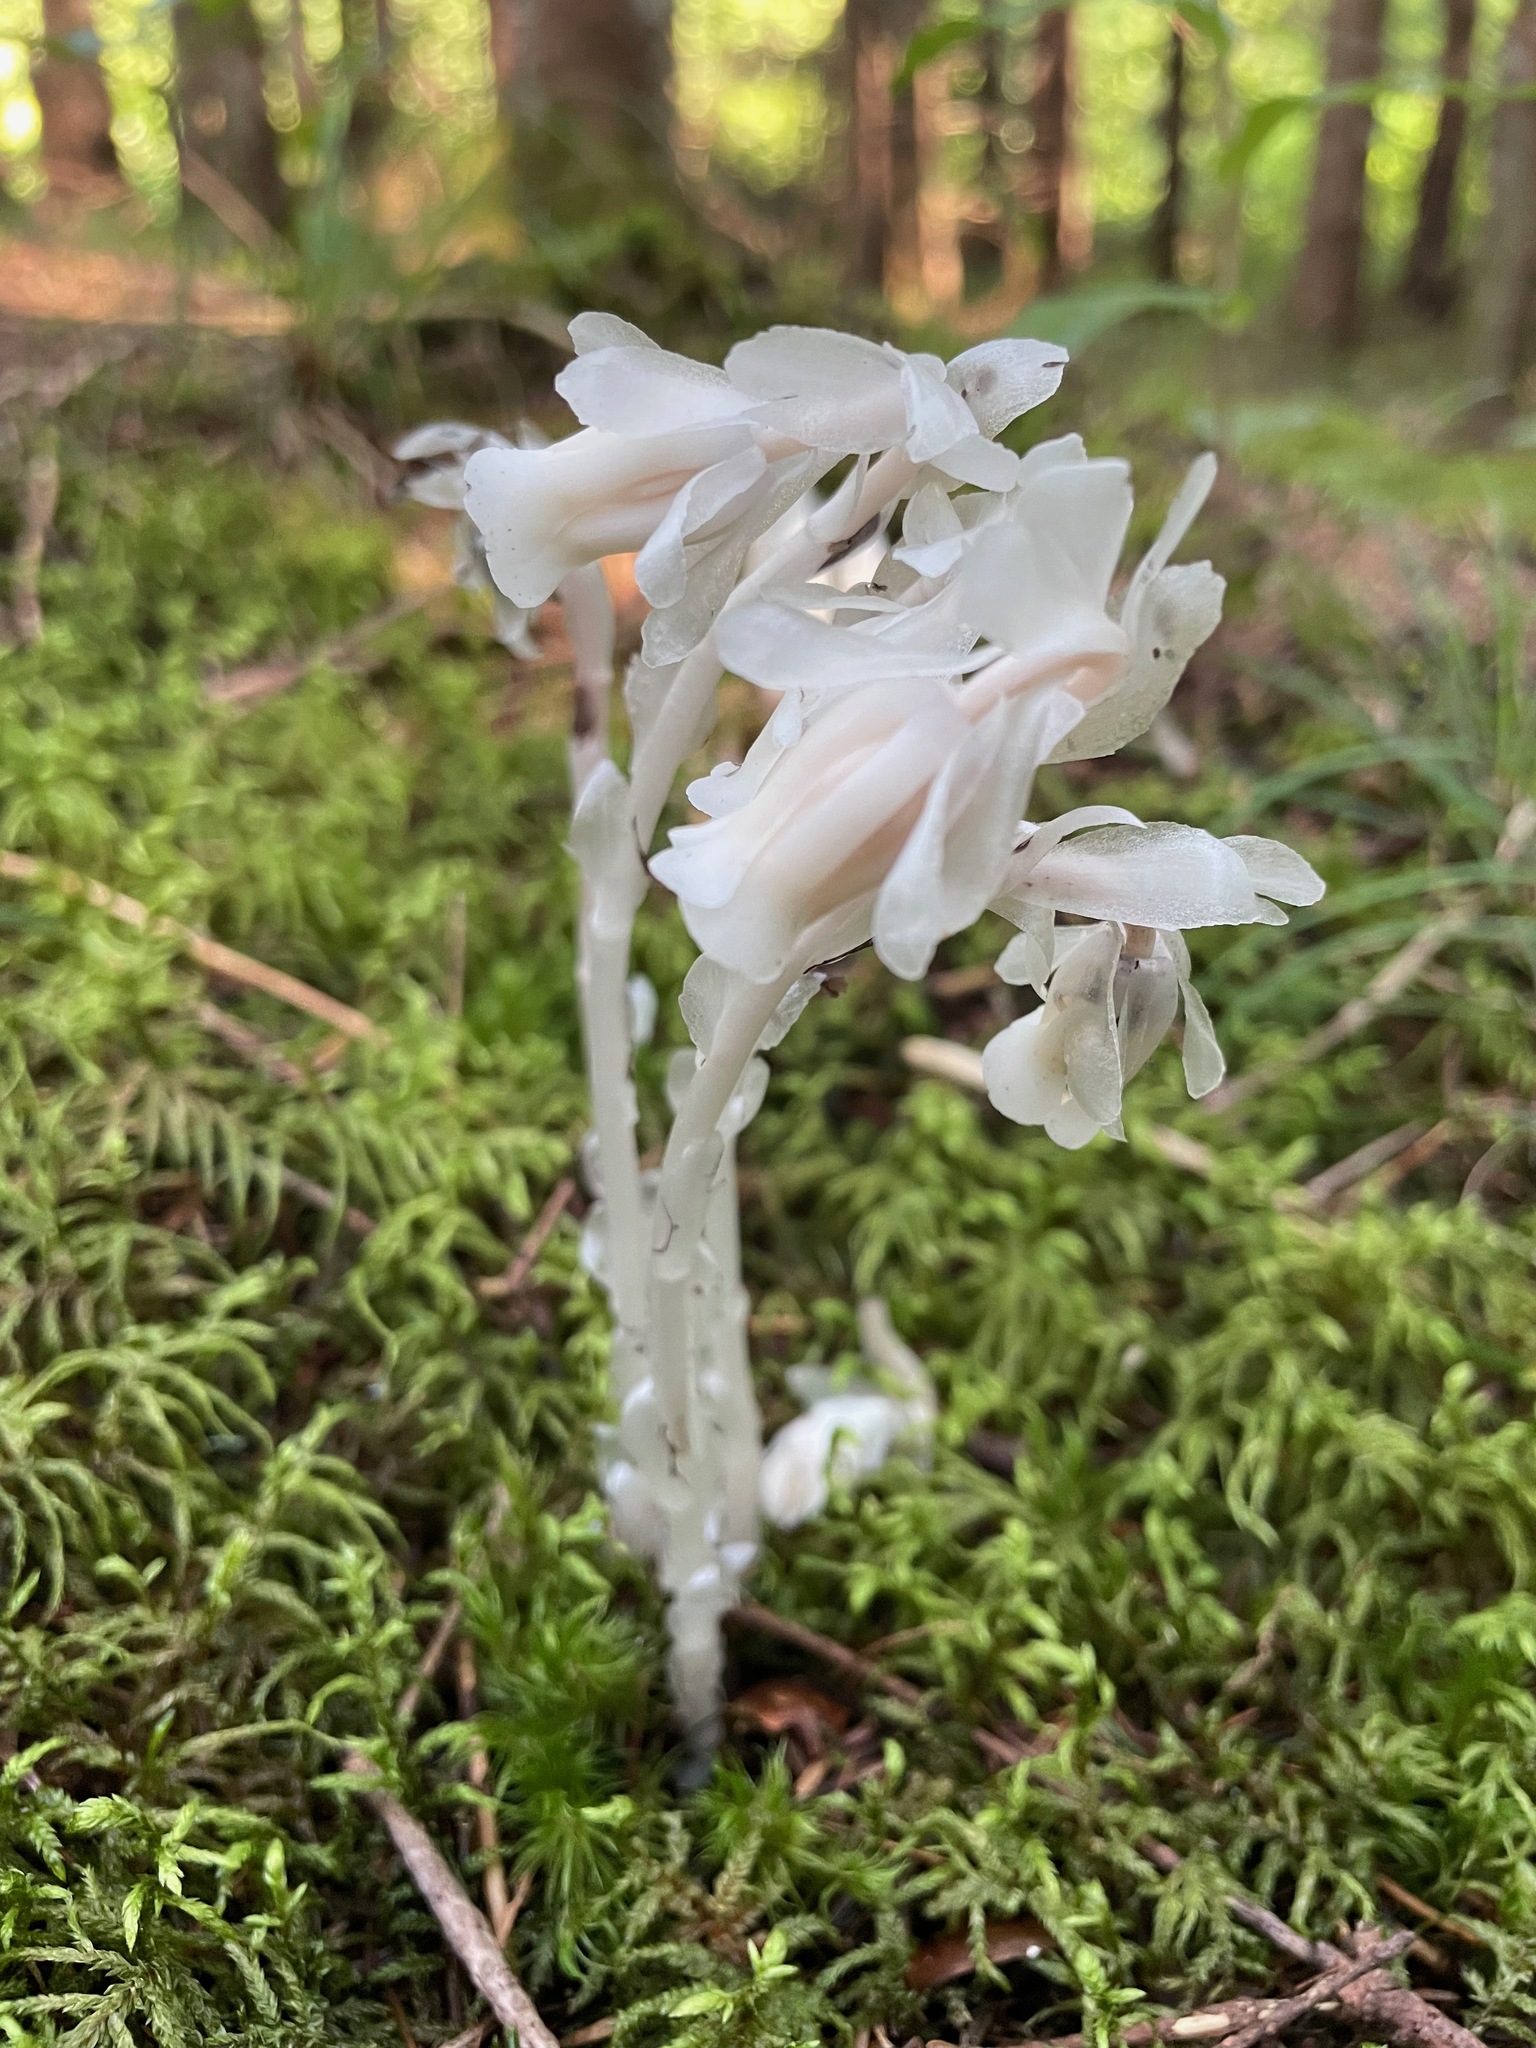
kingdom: Plantae
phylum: Tracheophyta
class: Magnoliopsida
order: Ericales
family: Ericaceae
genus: Monotropa
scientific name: Monotropa uniflora
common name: Convulsion root
